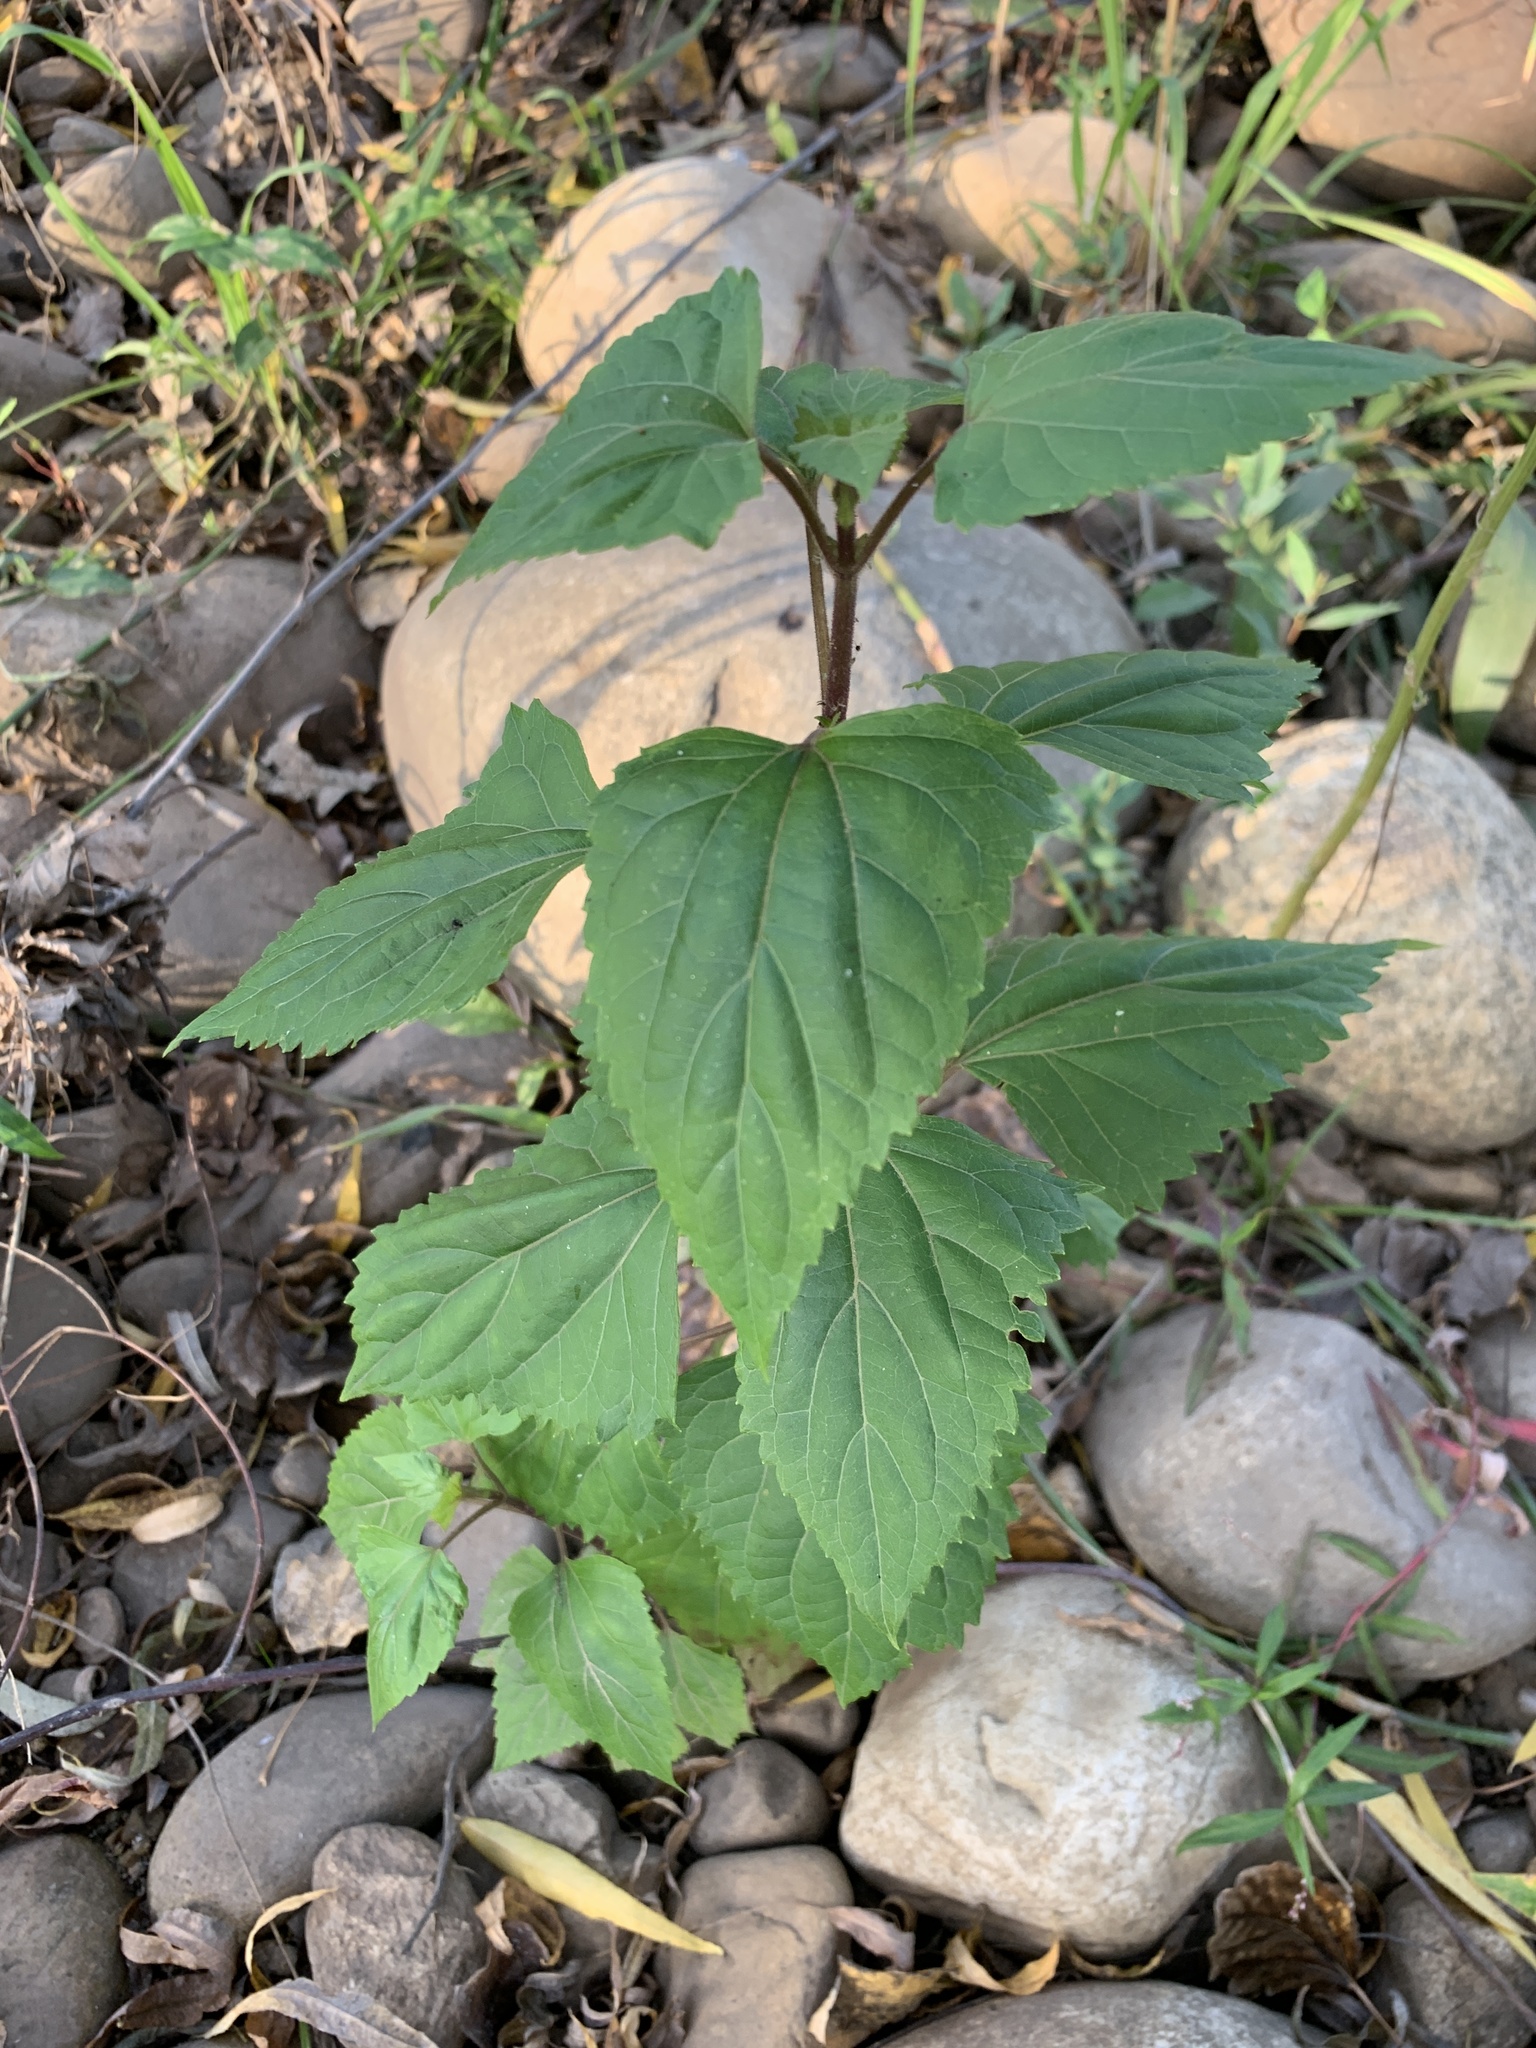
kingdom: Plantae
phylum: Tracheophyta
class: Magnoliopsida
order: Asterales
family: Asteraceae
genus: Ageratina
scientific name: Ageratina adenophora
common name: Sticky snakeroot
